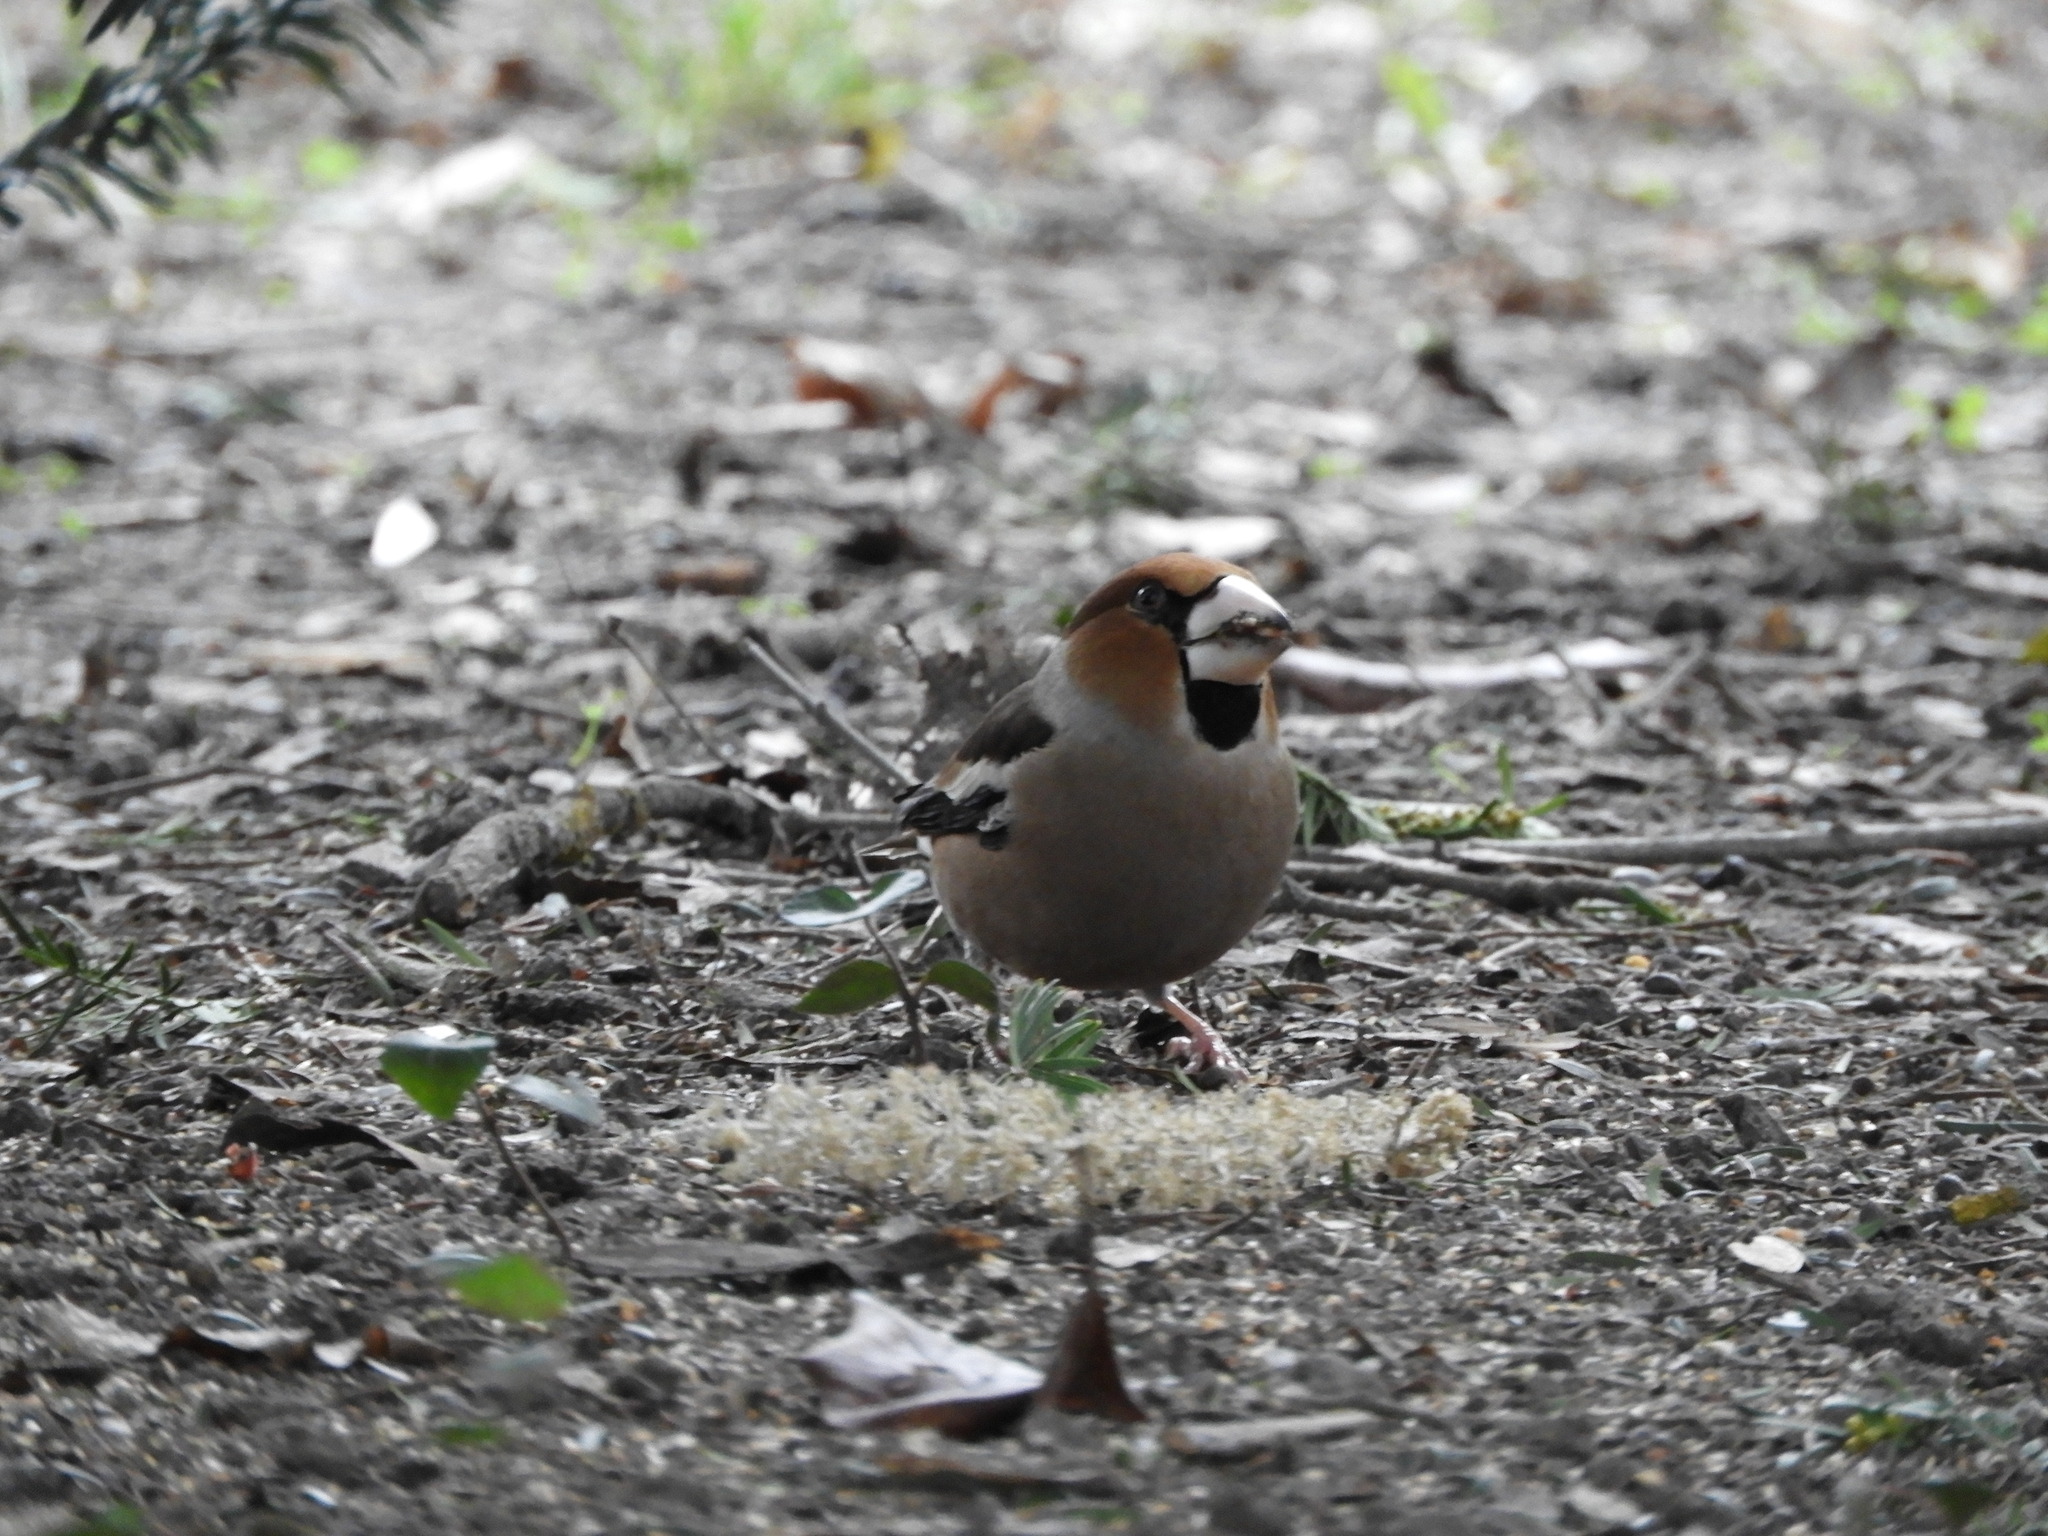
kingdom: Animalia
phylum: Chordata
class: Aves
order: Passeriformes
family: Fringillidae
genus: Coccothraustes
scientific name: Coccothraustes coccothraustes
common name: Hawfinch
